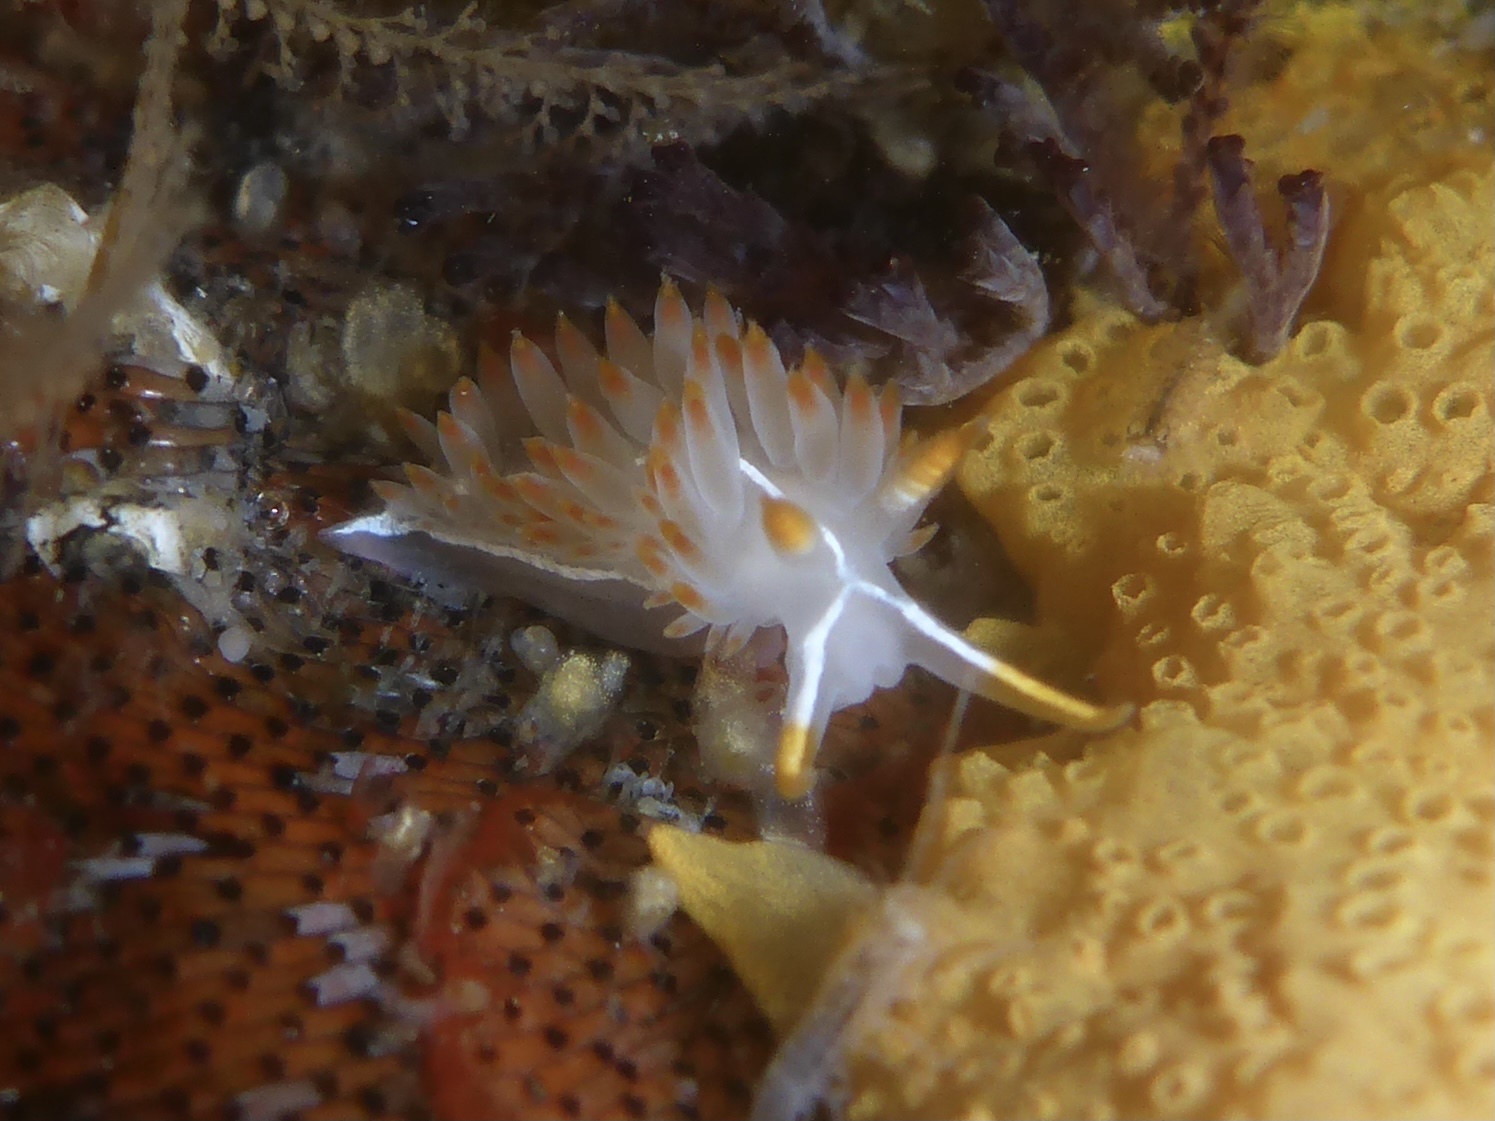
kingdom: Animalia
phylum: Mollusca
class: Gastropoda
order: Nudibranchia
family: Coryphellidae
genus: Coryphella
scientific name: Coryphella trilineata
